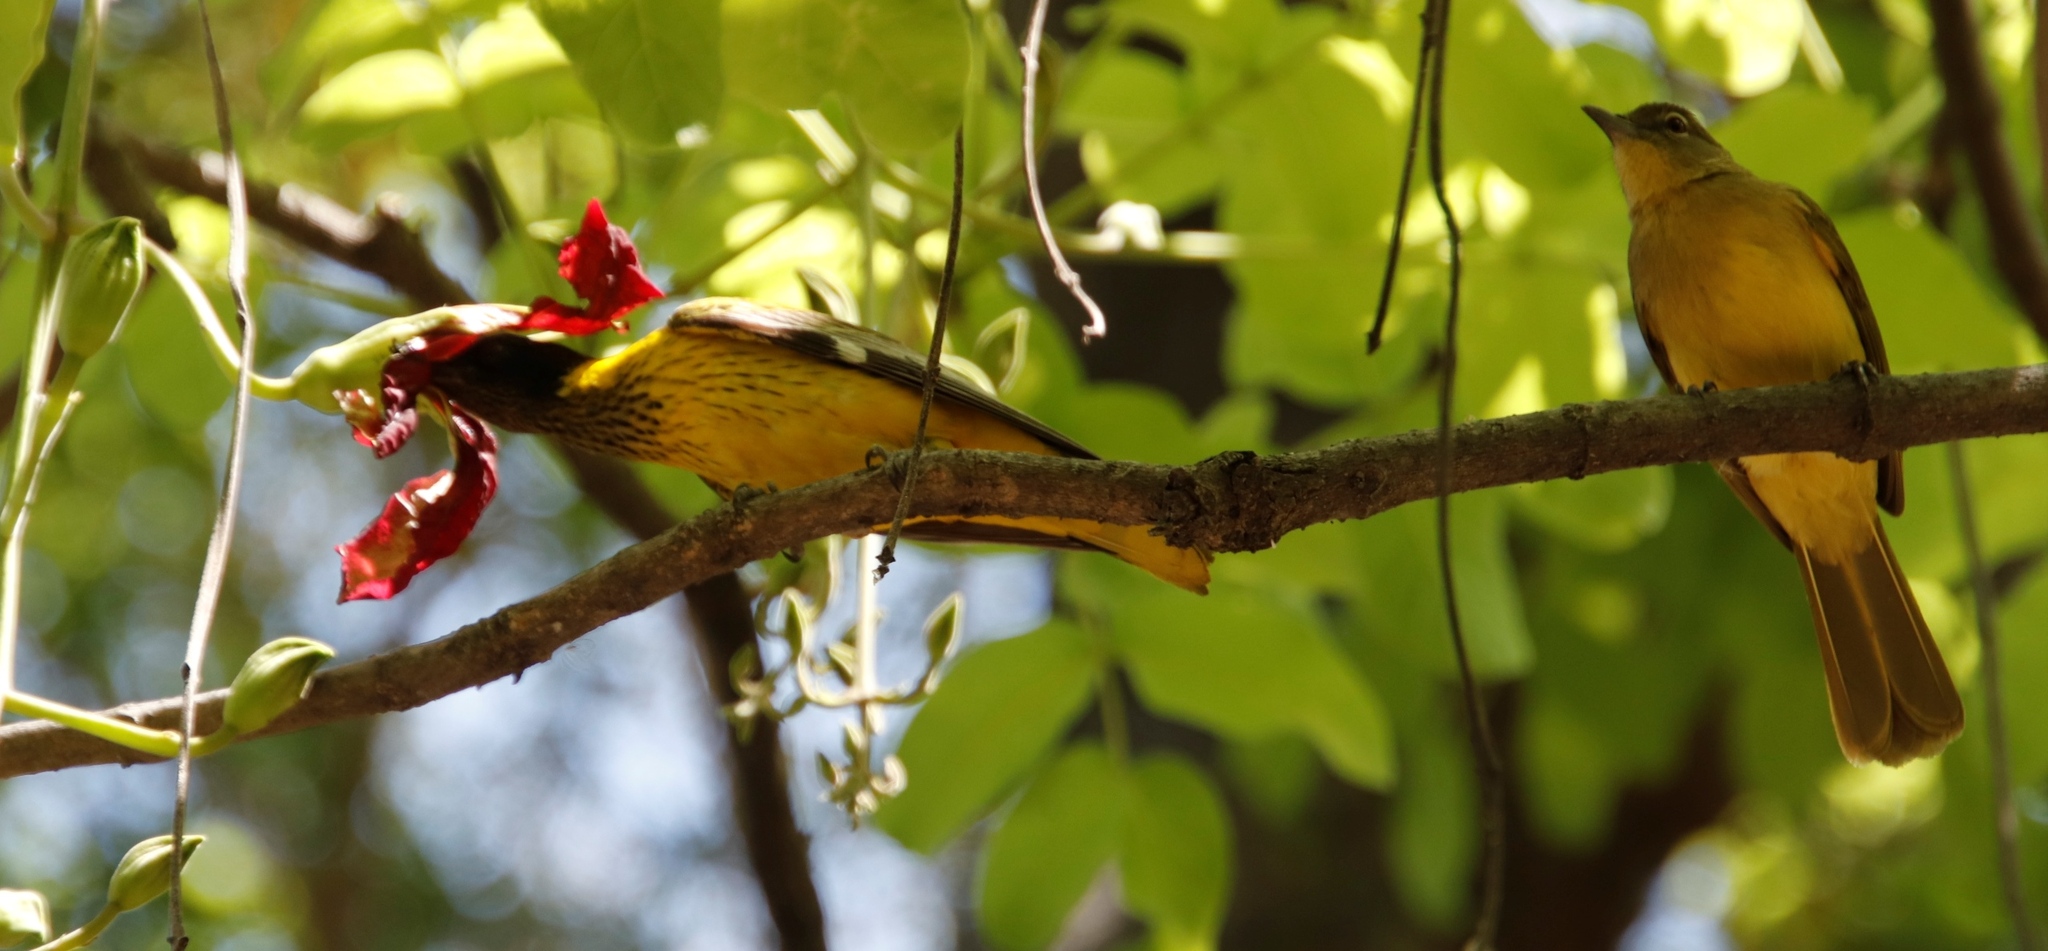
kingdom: Plantae
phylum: Tracheophyta
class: Magnoliopsida
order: Lamiales
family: Bignoniaceae
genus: Kigelia
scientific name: Kigelia africana
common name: Sausage tree
